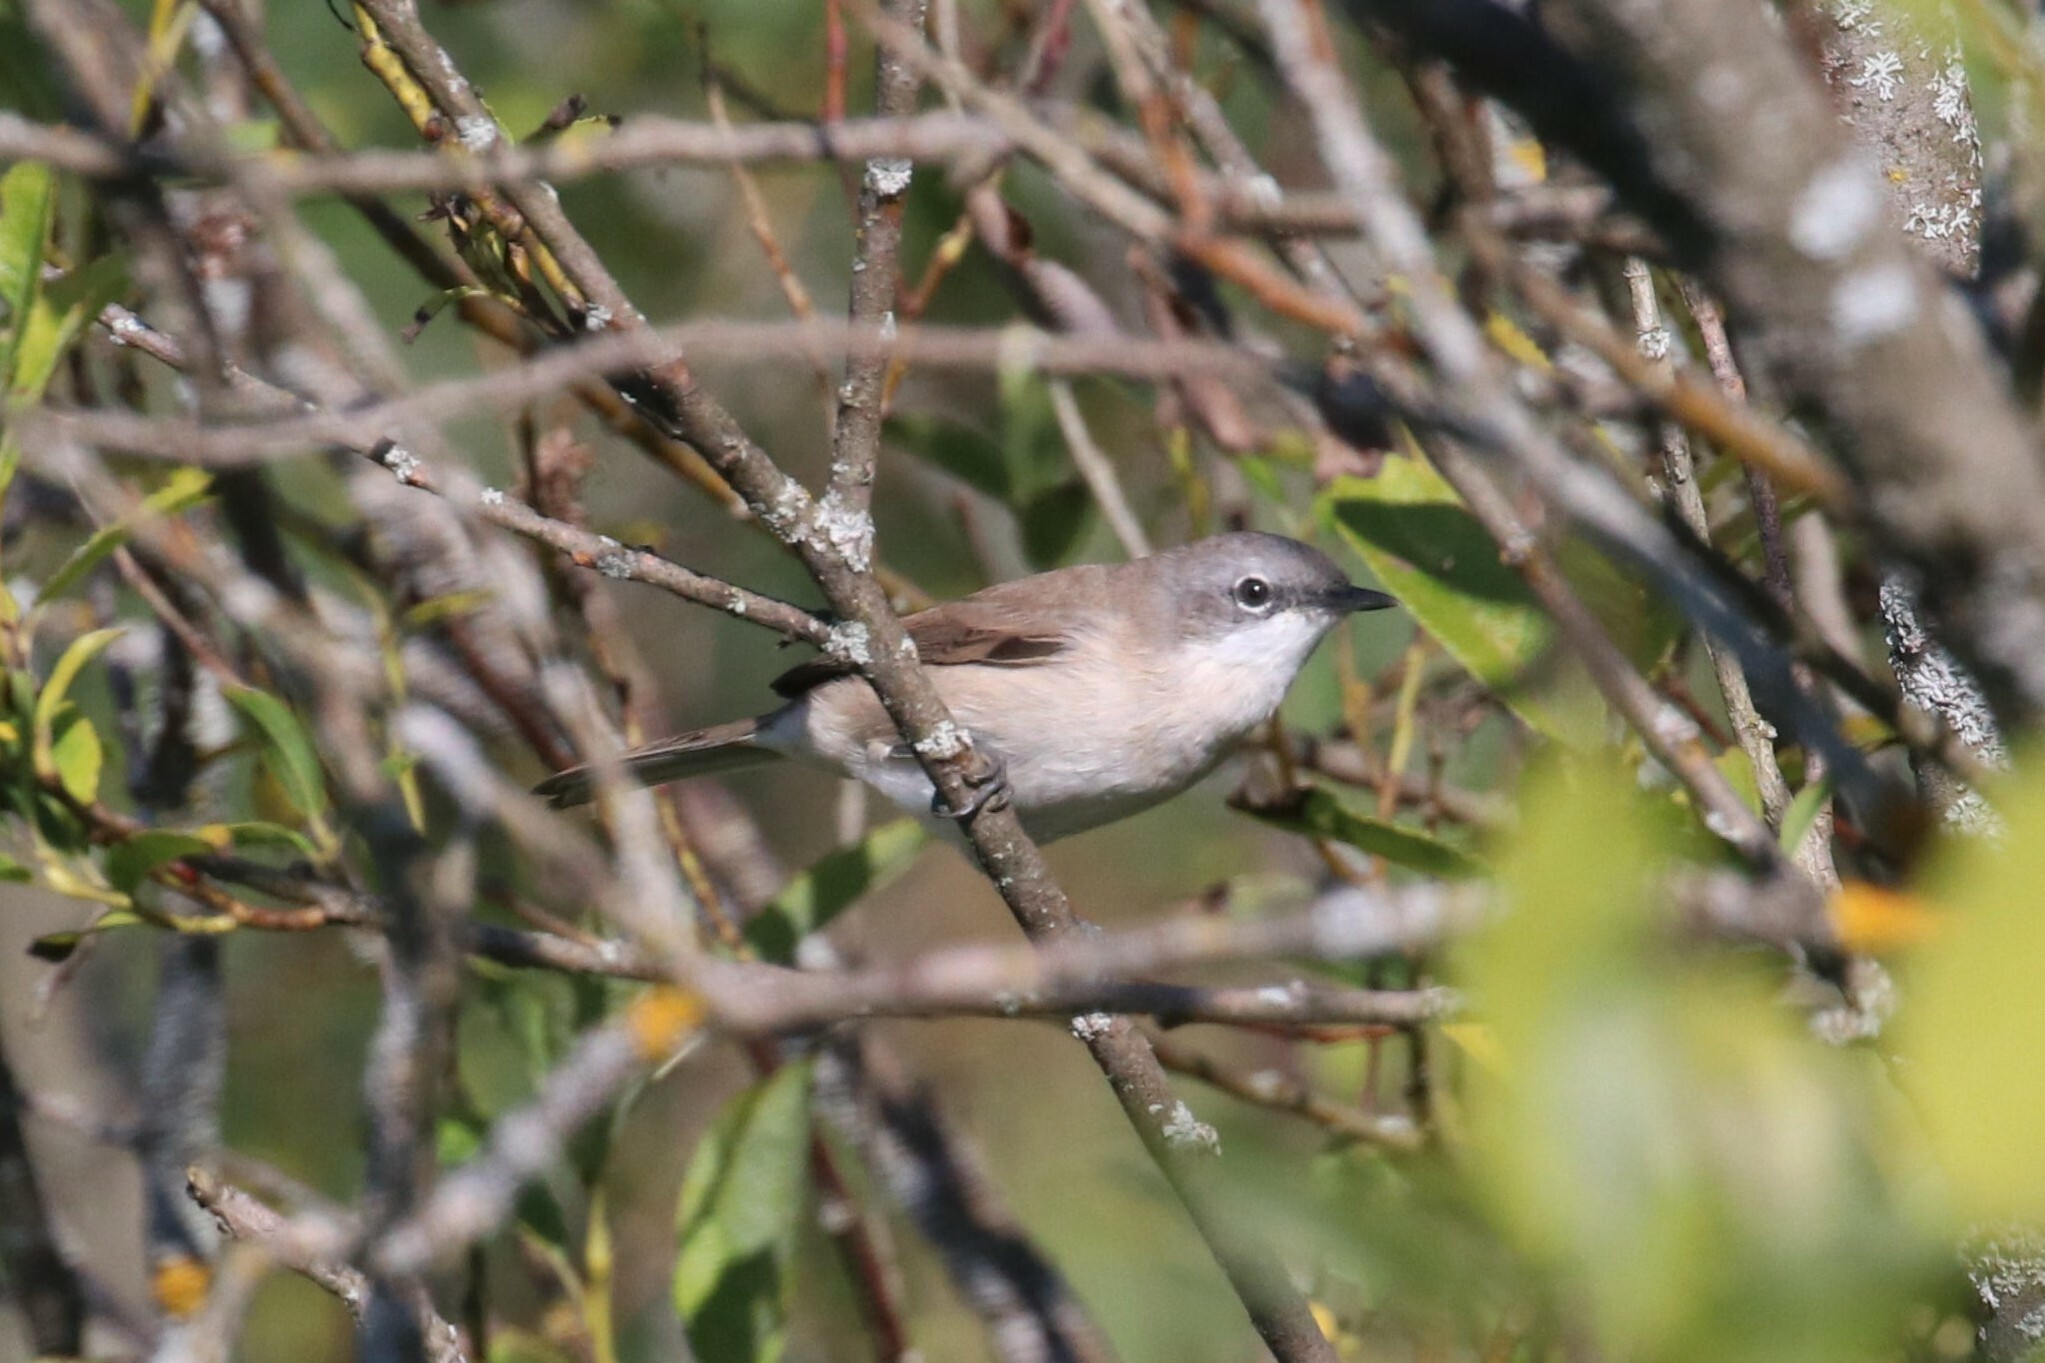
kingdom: Animalia
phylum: Chordata
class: Aves
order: Passeriformes
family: Sylviidae
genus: Sylvia
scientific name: Sylvia curruca
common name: Lesser whitethroat
